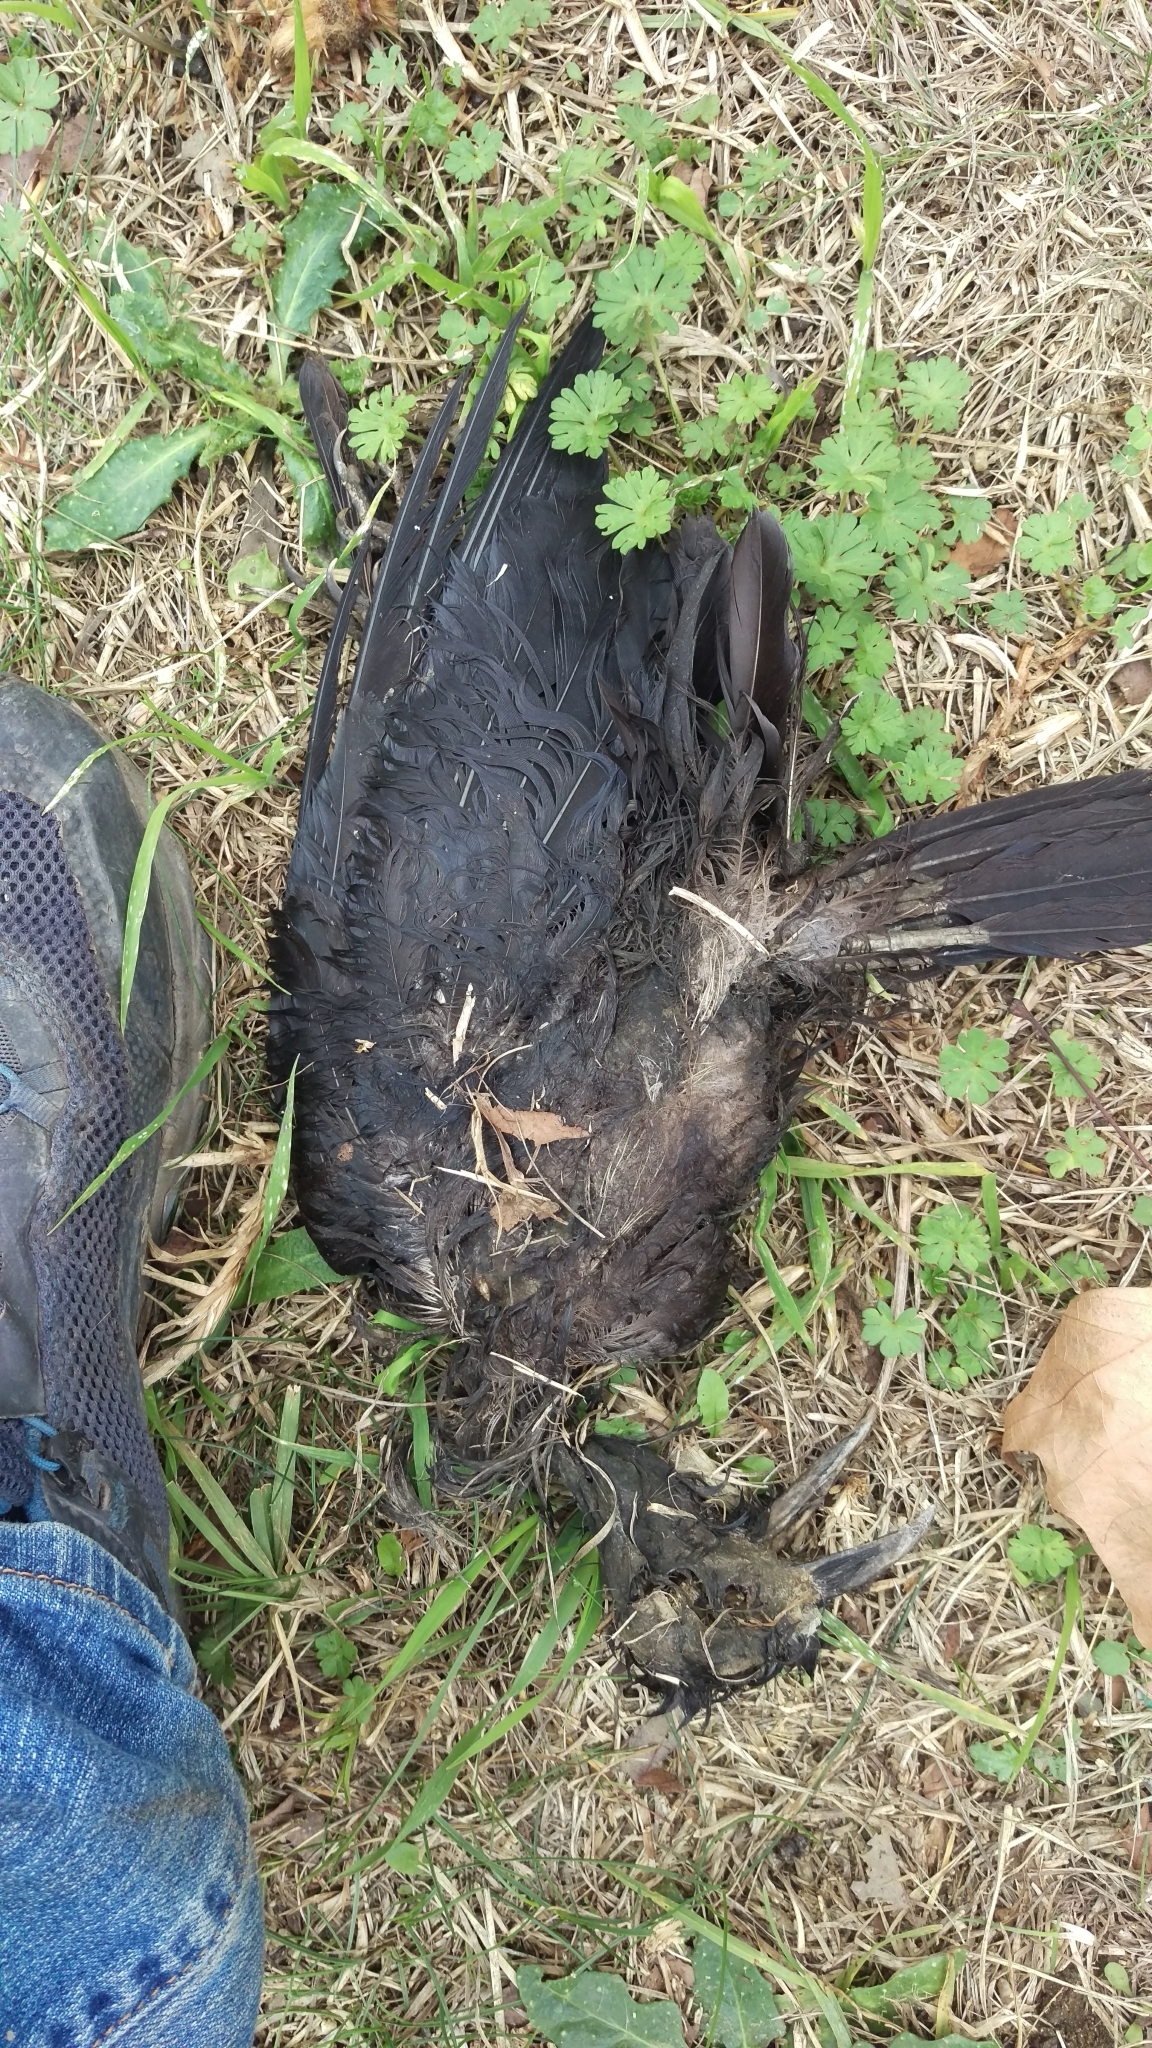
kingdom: Animalia
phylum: Chordata
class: Aves
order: Passeriformes
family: Corvidae
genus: Corvus
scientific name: Corvus brachyrhynchos
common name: American crow
